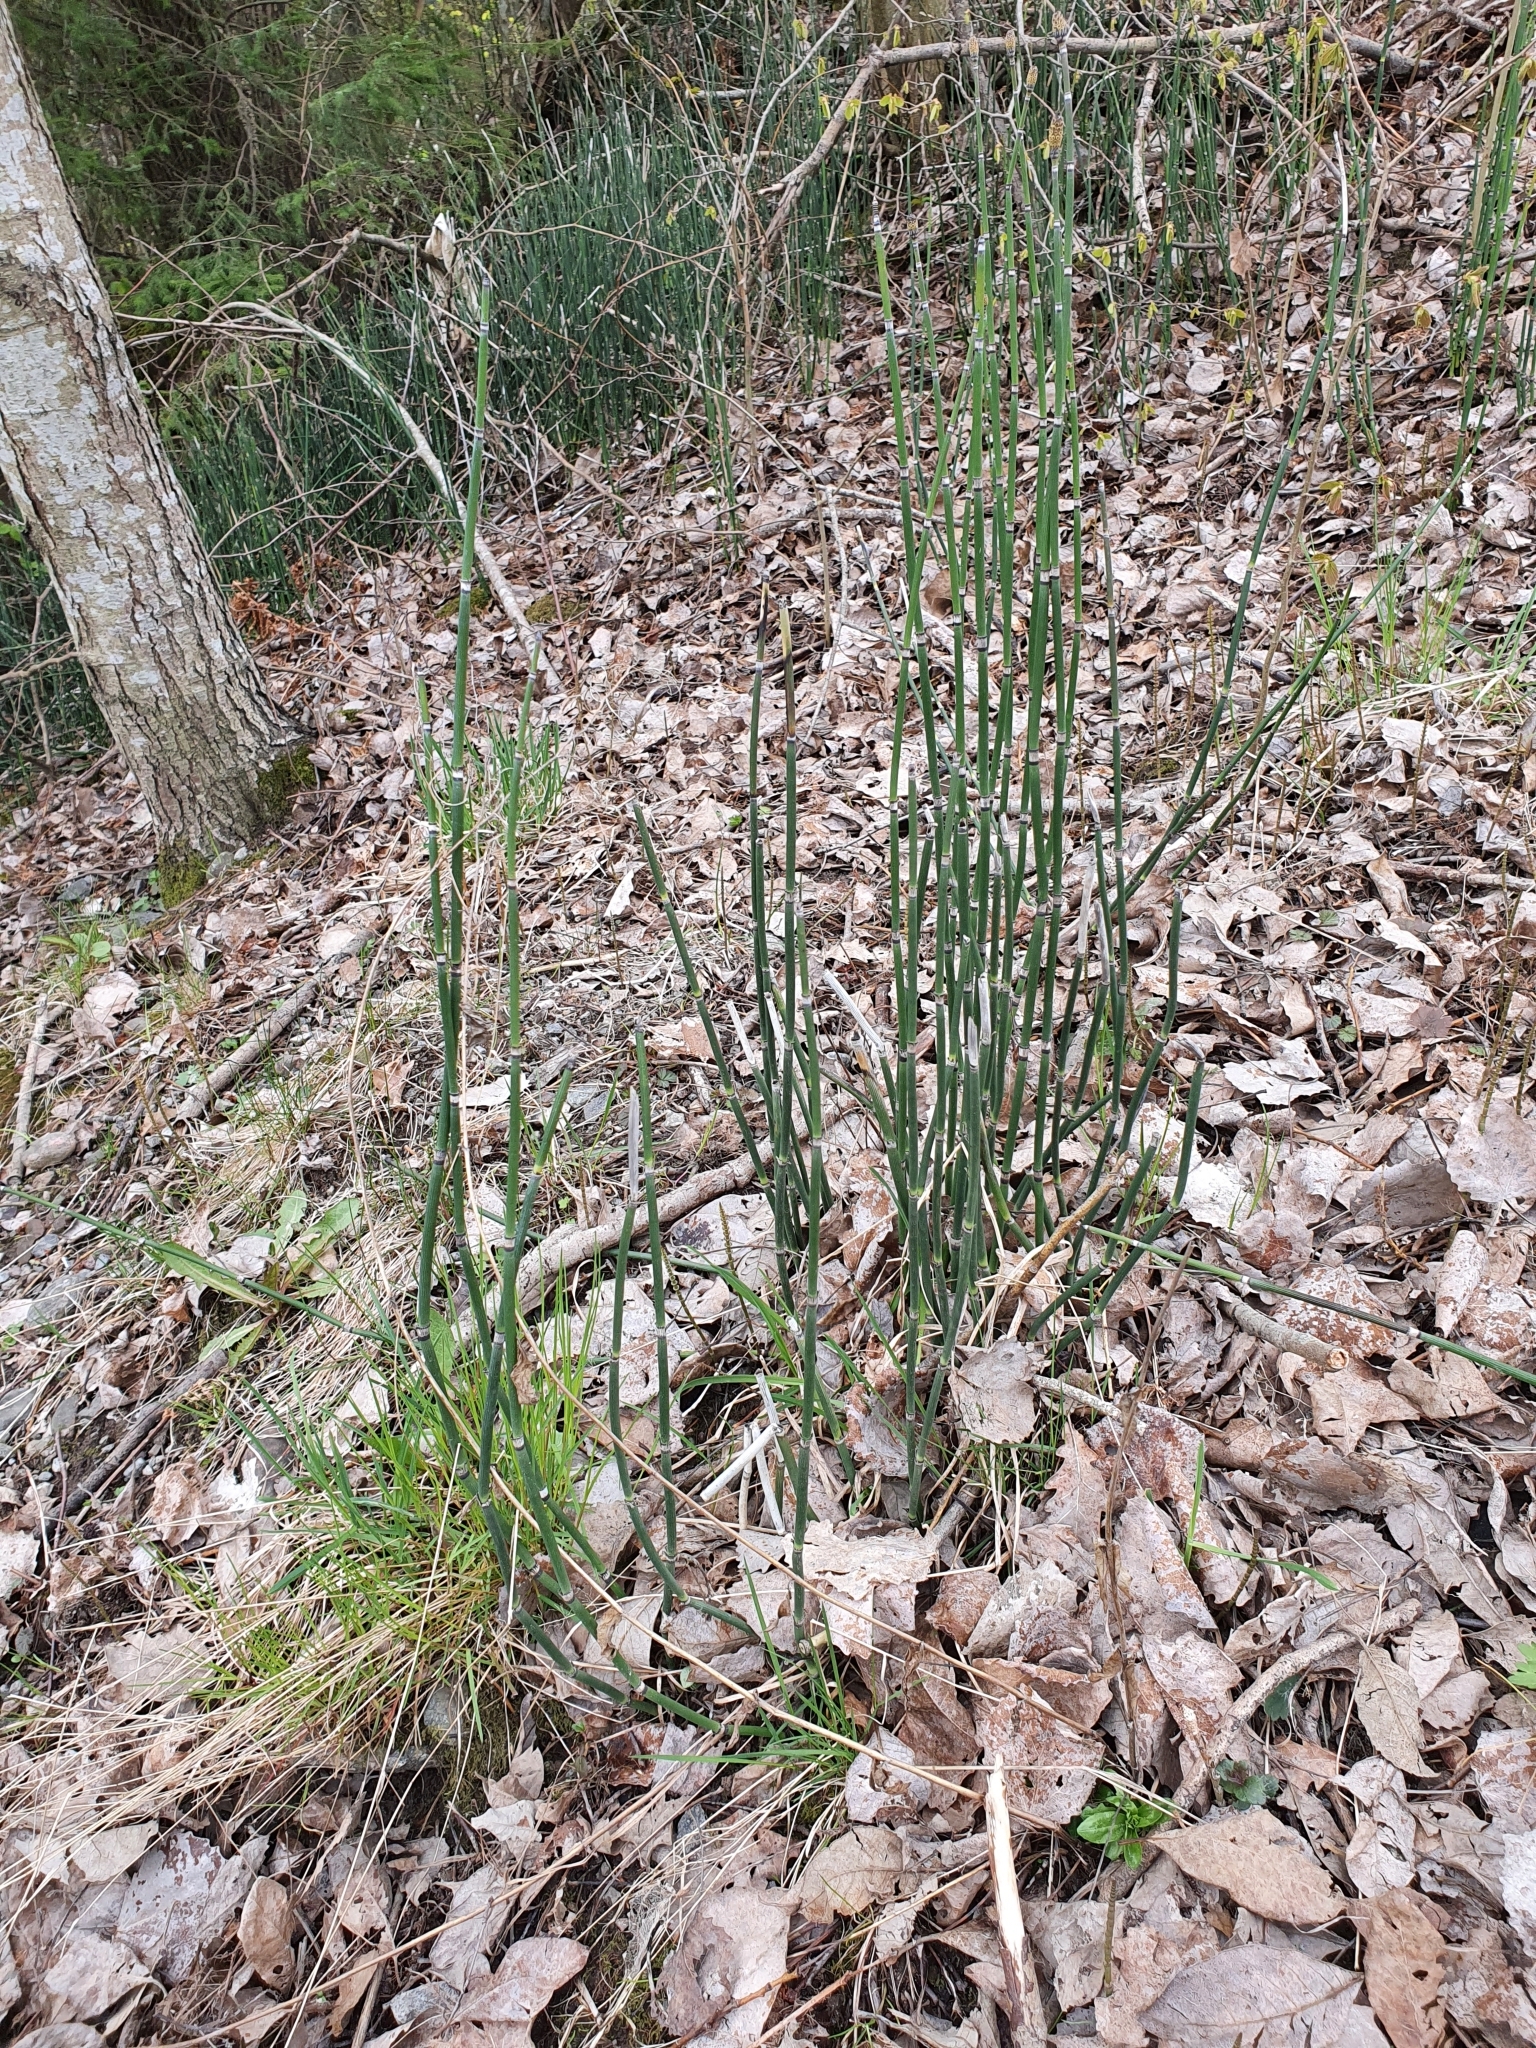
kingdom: Plantae
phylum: Tracheophyta
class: Polypodiopsida
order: Equisetales
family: Equisetaceae
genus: Equisetum
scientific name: Equisetum hyemale
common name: Rough horsetail
